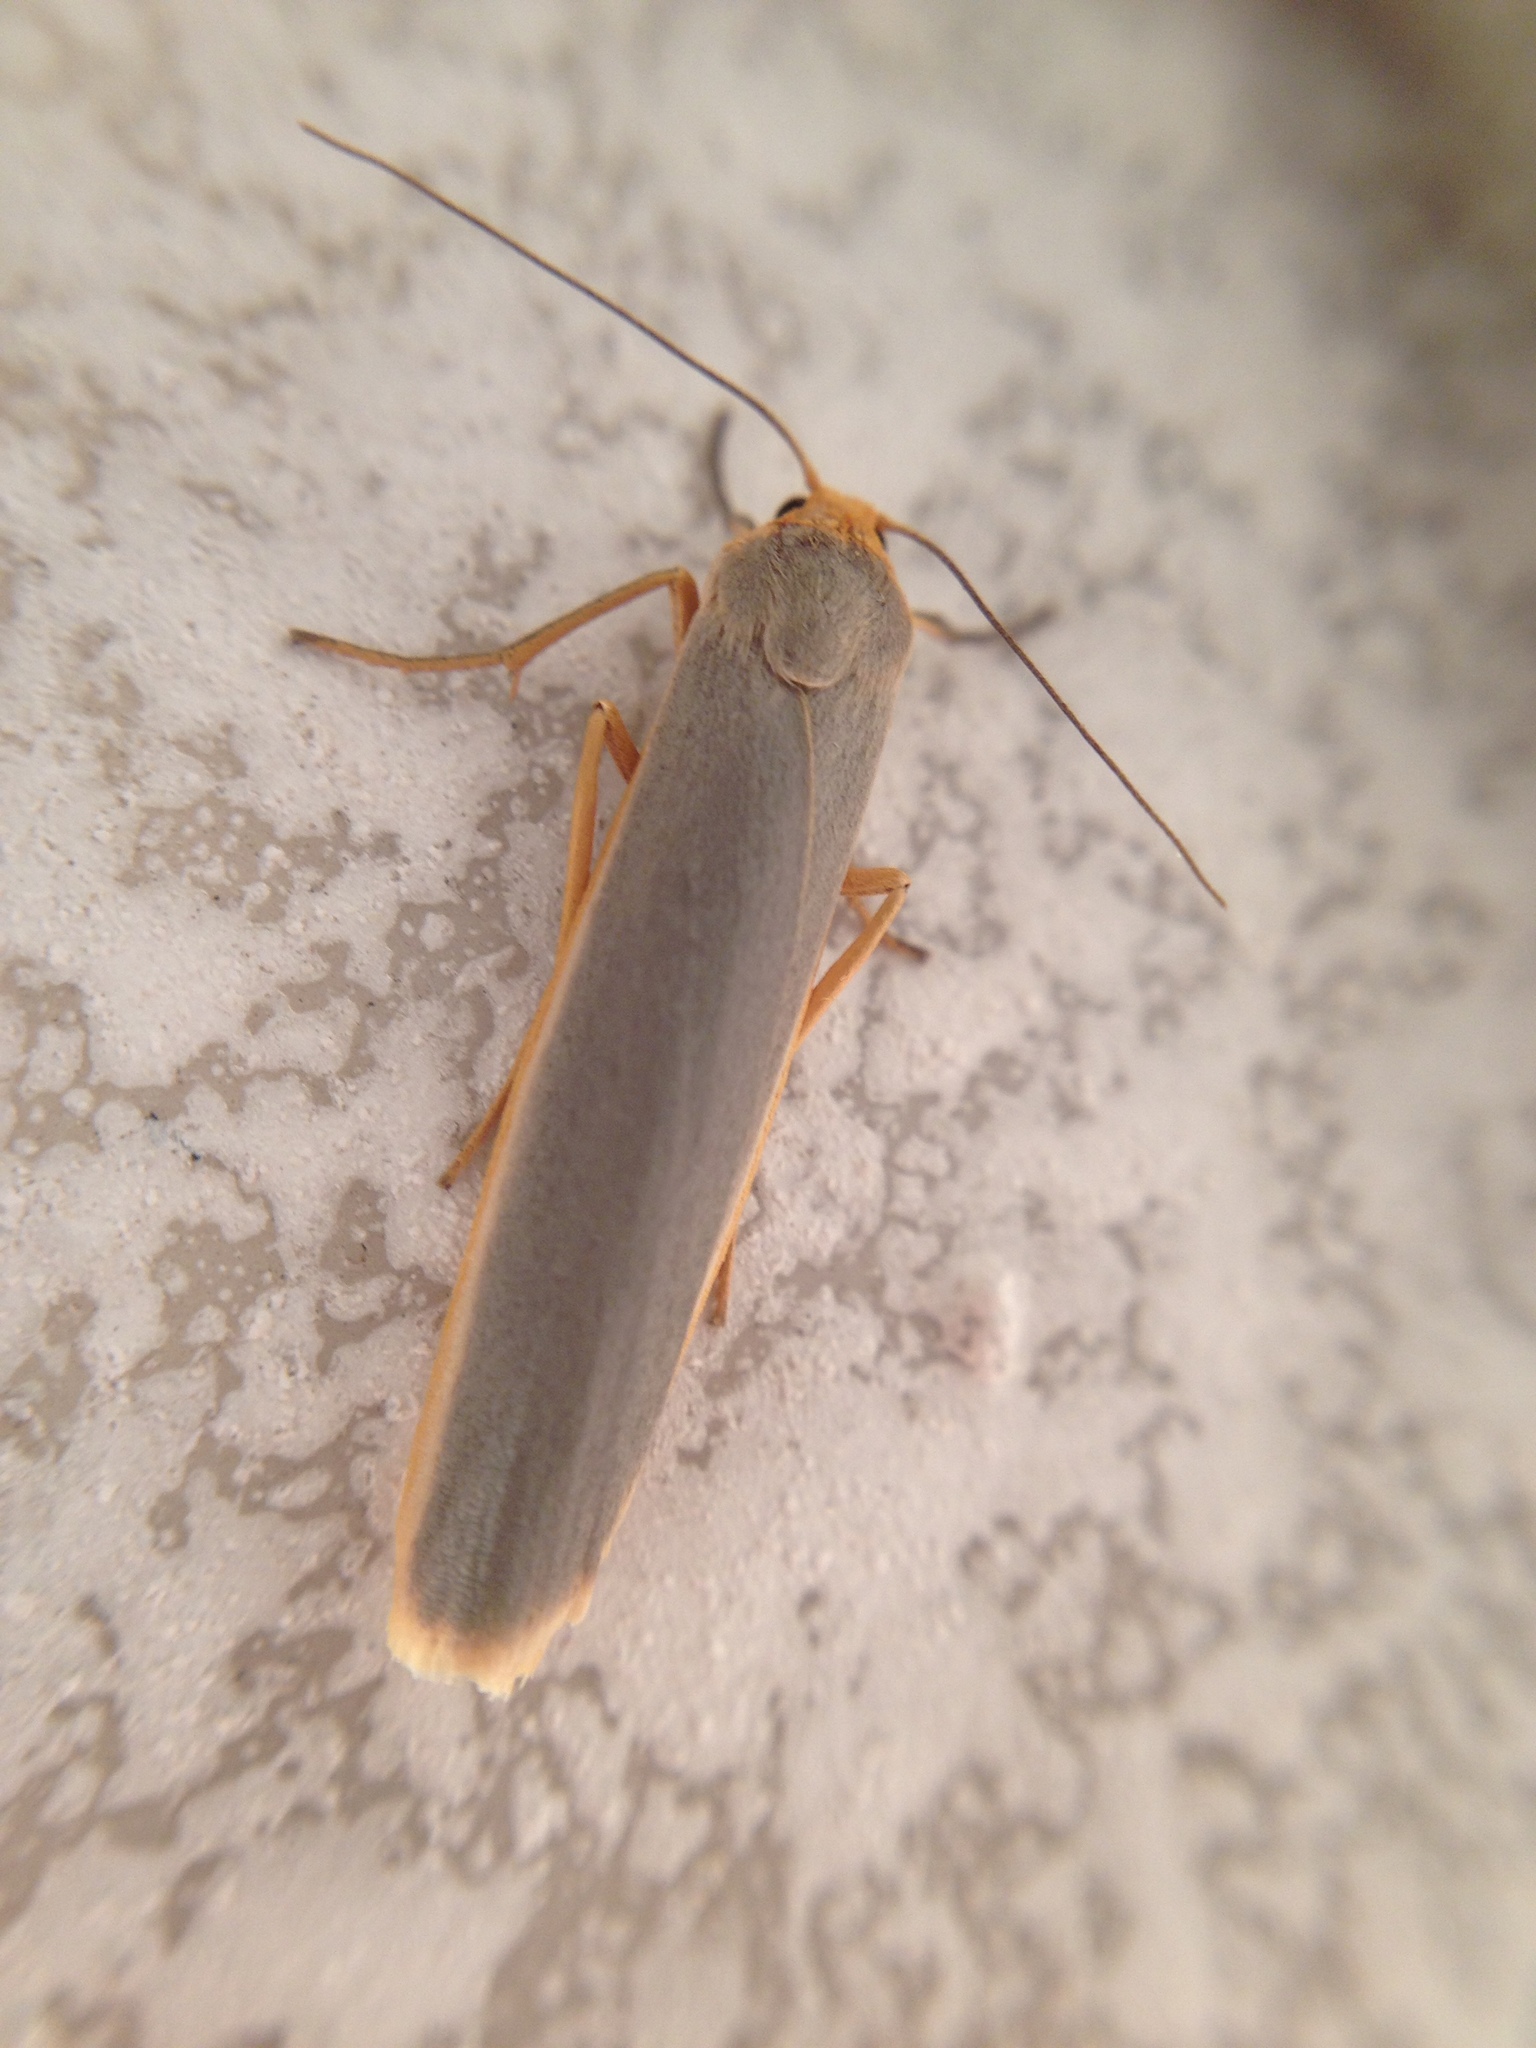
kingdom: Animalia
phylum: Arthropoda
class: Insecta
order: Lepidoptera
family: Erebidae
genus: Manulea
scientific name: Manulea complana
